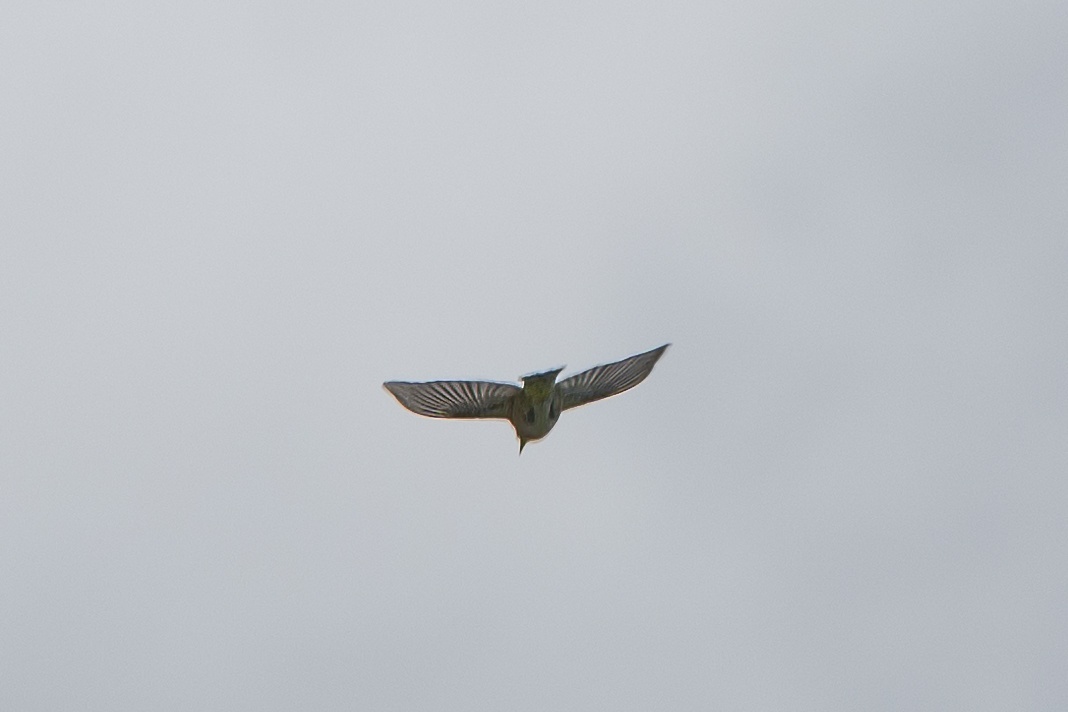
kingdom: Animalia
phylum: Chordata
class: Aves
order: Passeriformes
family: Zosteropidae
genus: Zosterops
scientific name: Zosterops japonicus
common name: Japanese white-eye
